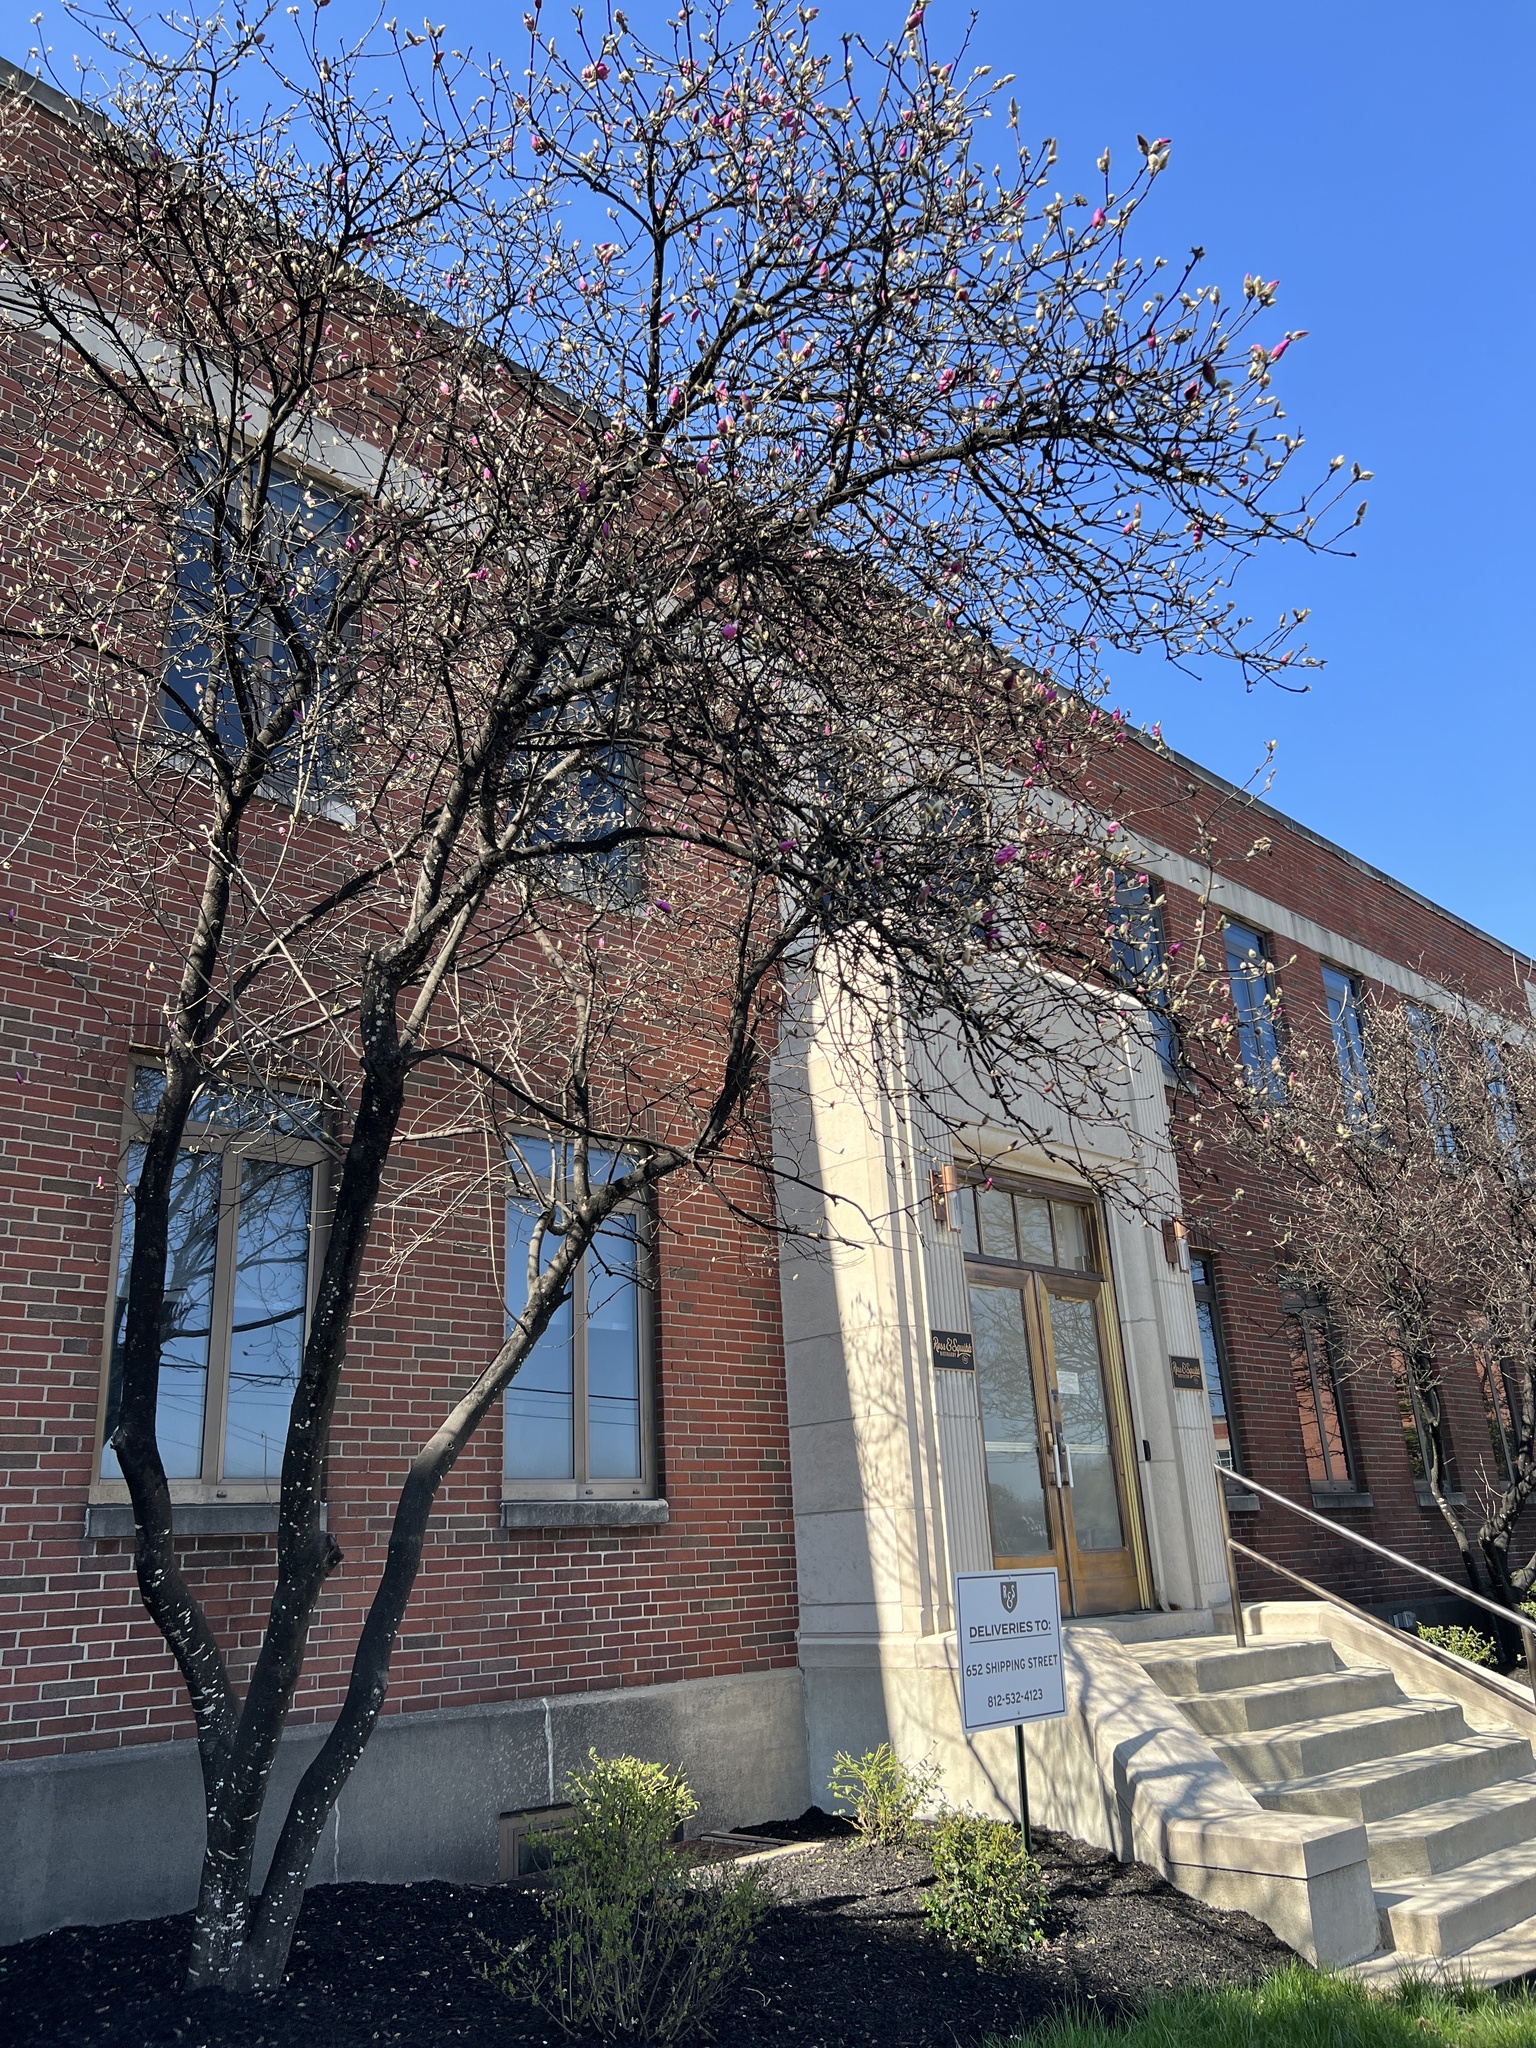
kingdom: Fungi
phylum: Ascomycota
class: Dothideomycetes
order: Capnodiales
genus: Baudoinia
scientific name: Baudoinia compniacensis
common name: Angel's share
